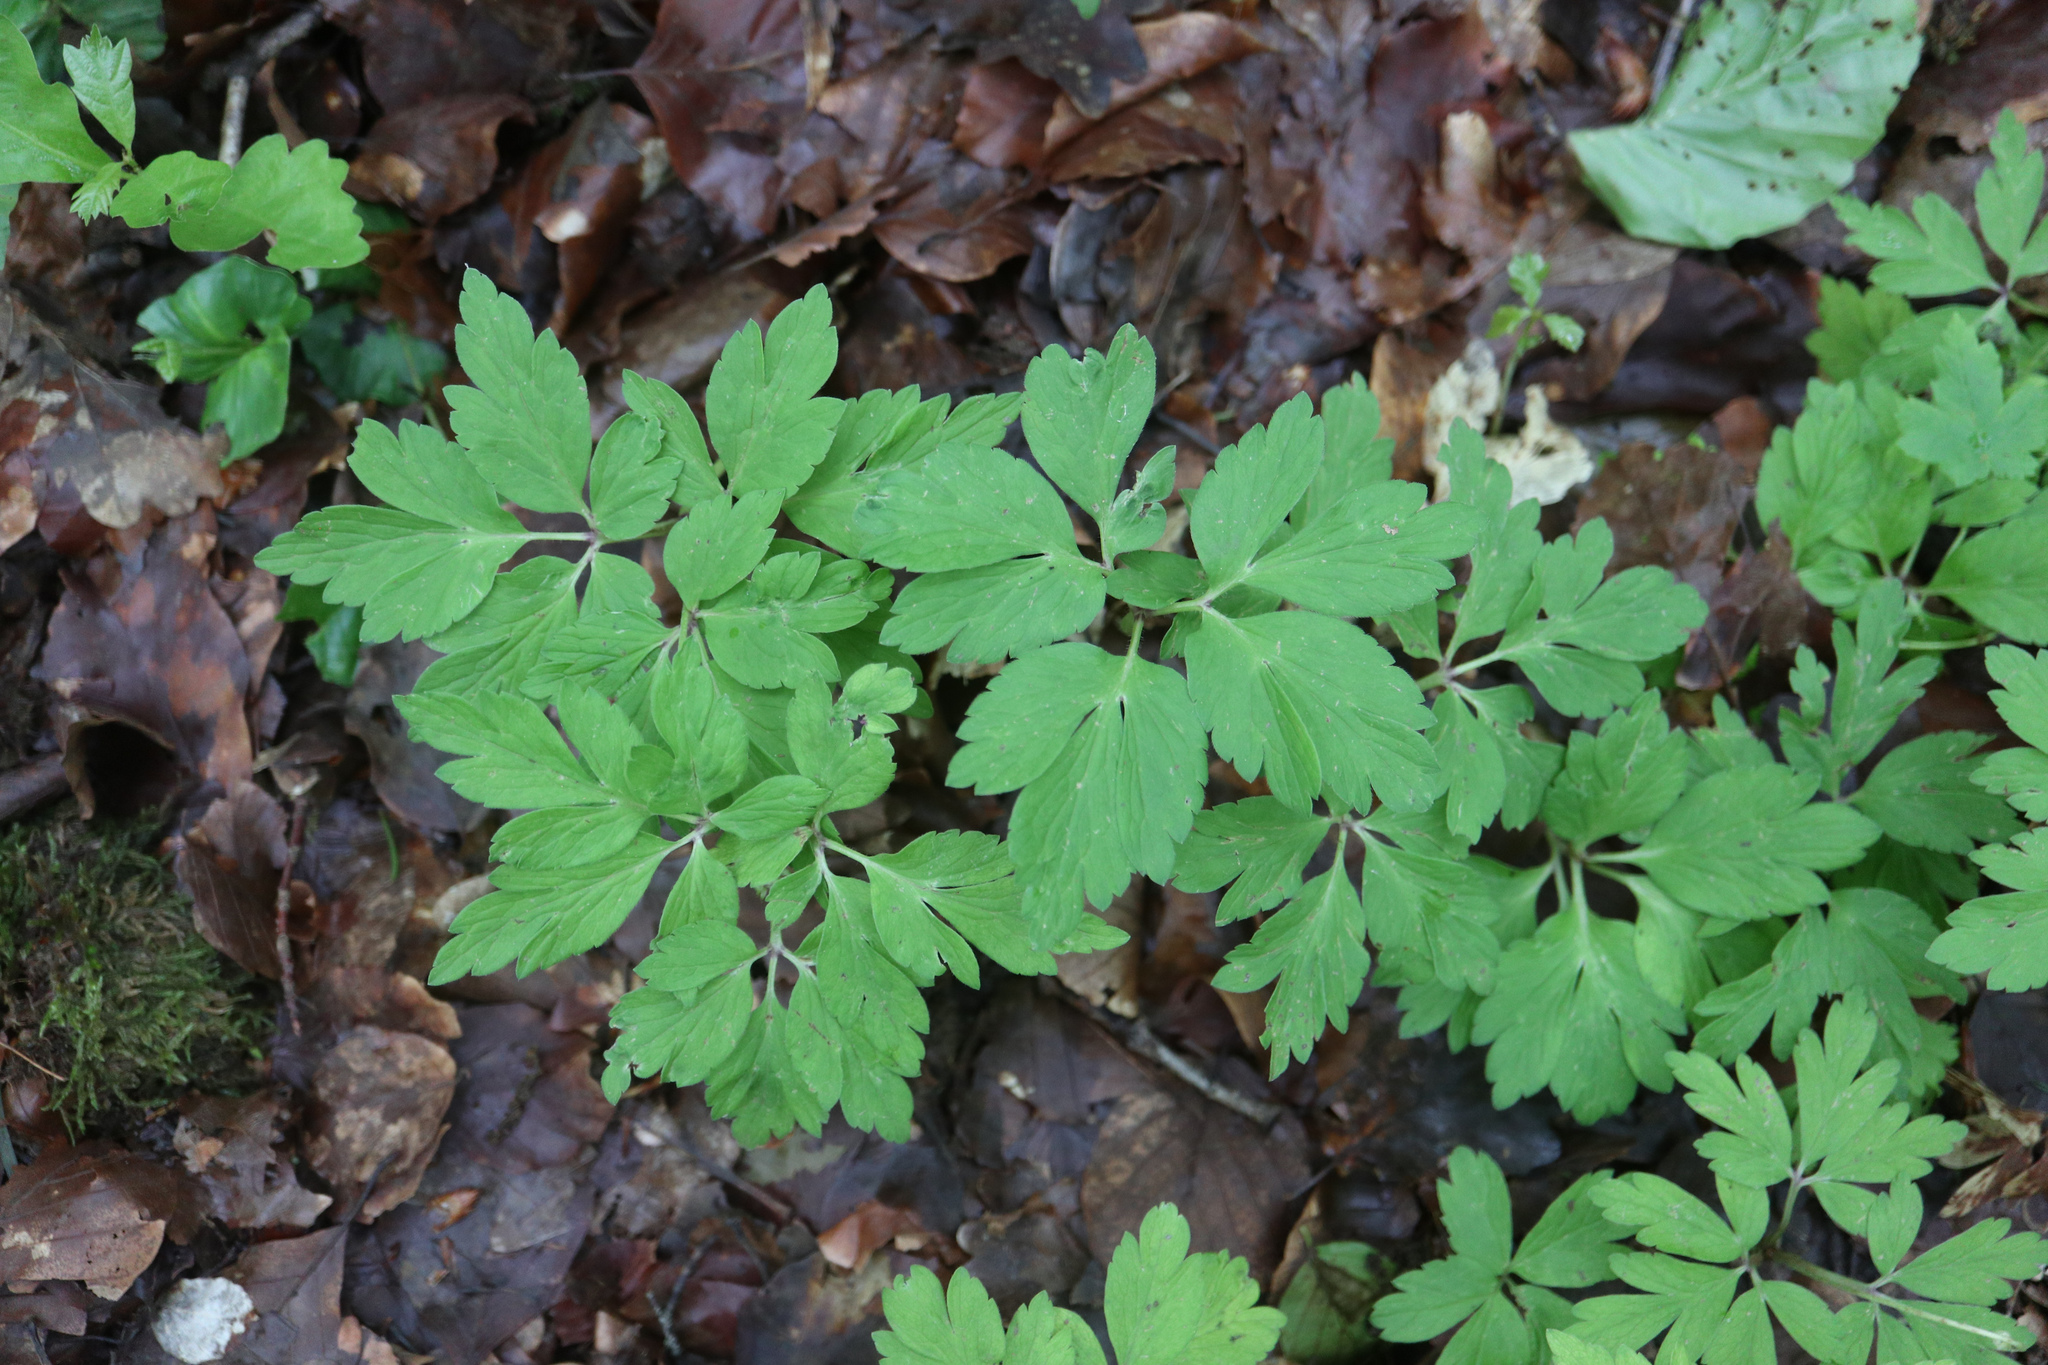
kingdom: Plantae
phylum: Tracheophyta
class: Magnoliopsida
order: Ranunculales
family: Ranunculaceae
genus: Anemone
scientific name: Anemone nemorosa
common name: Wood anemone
